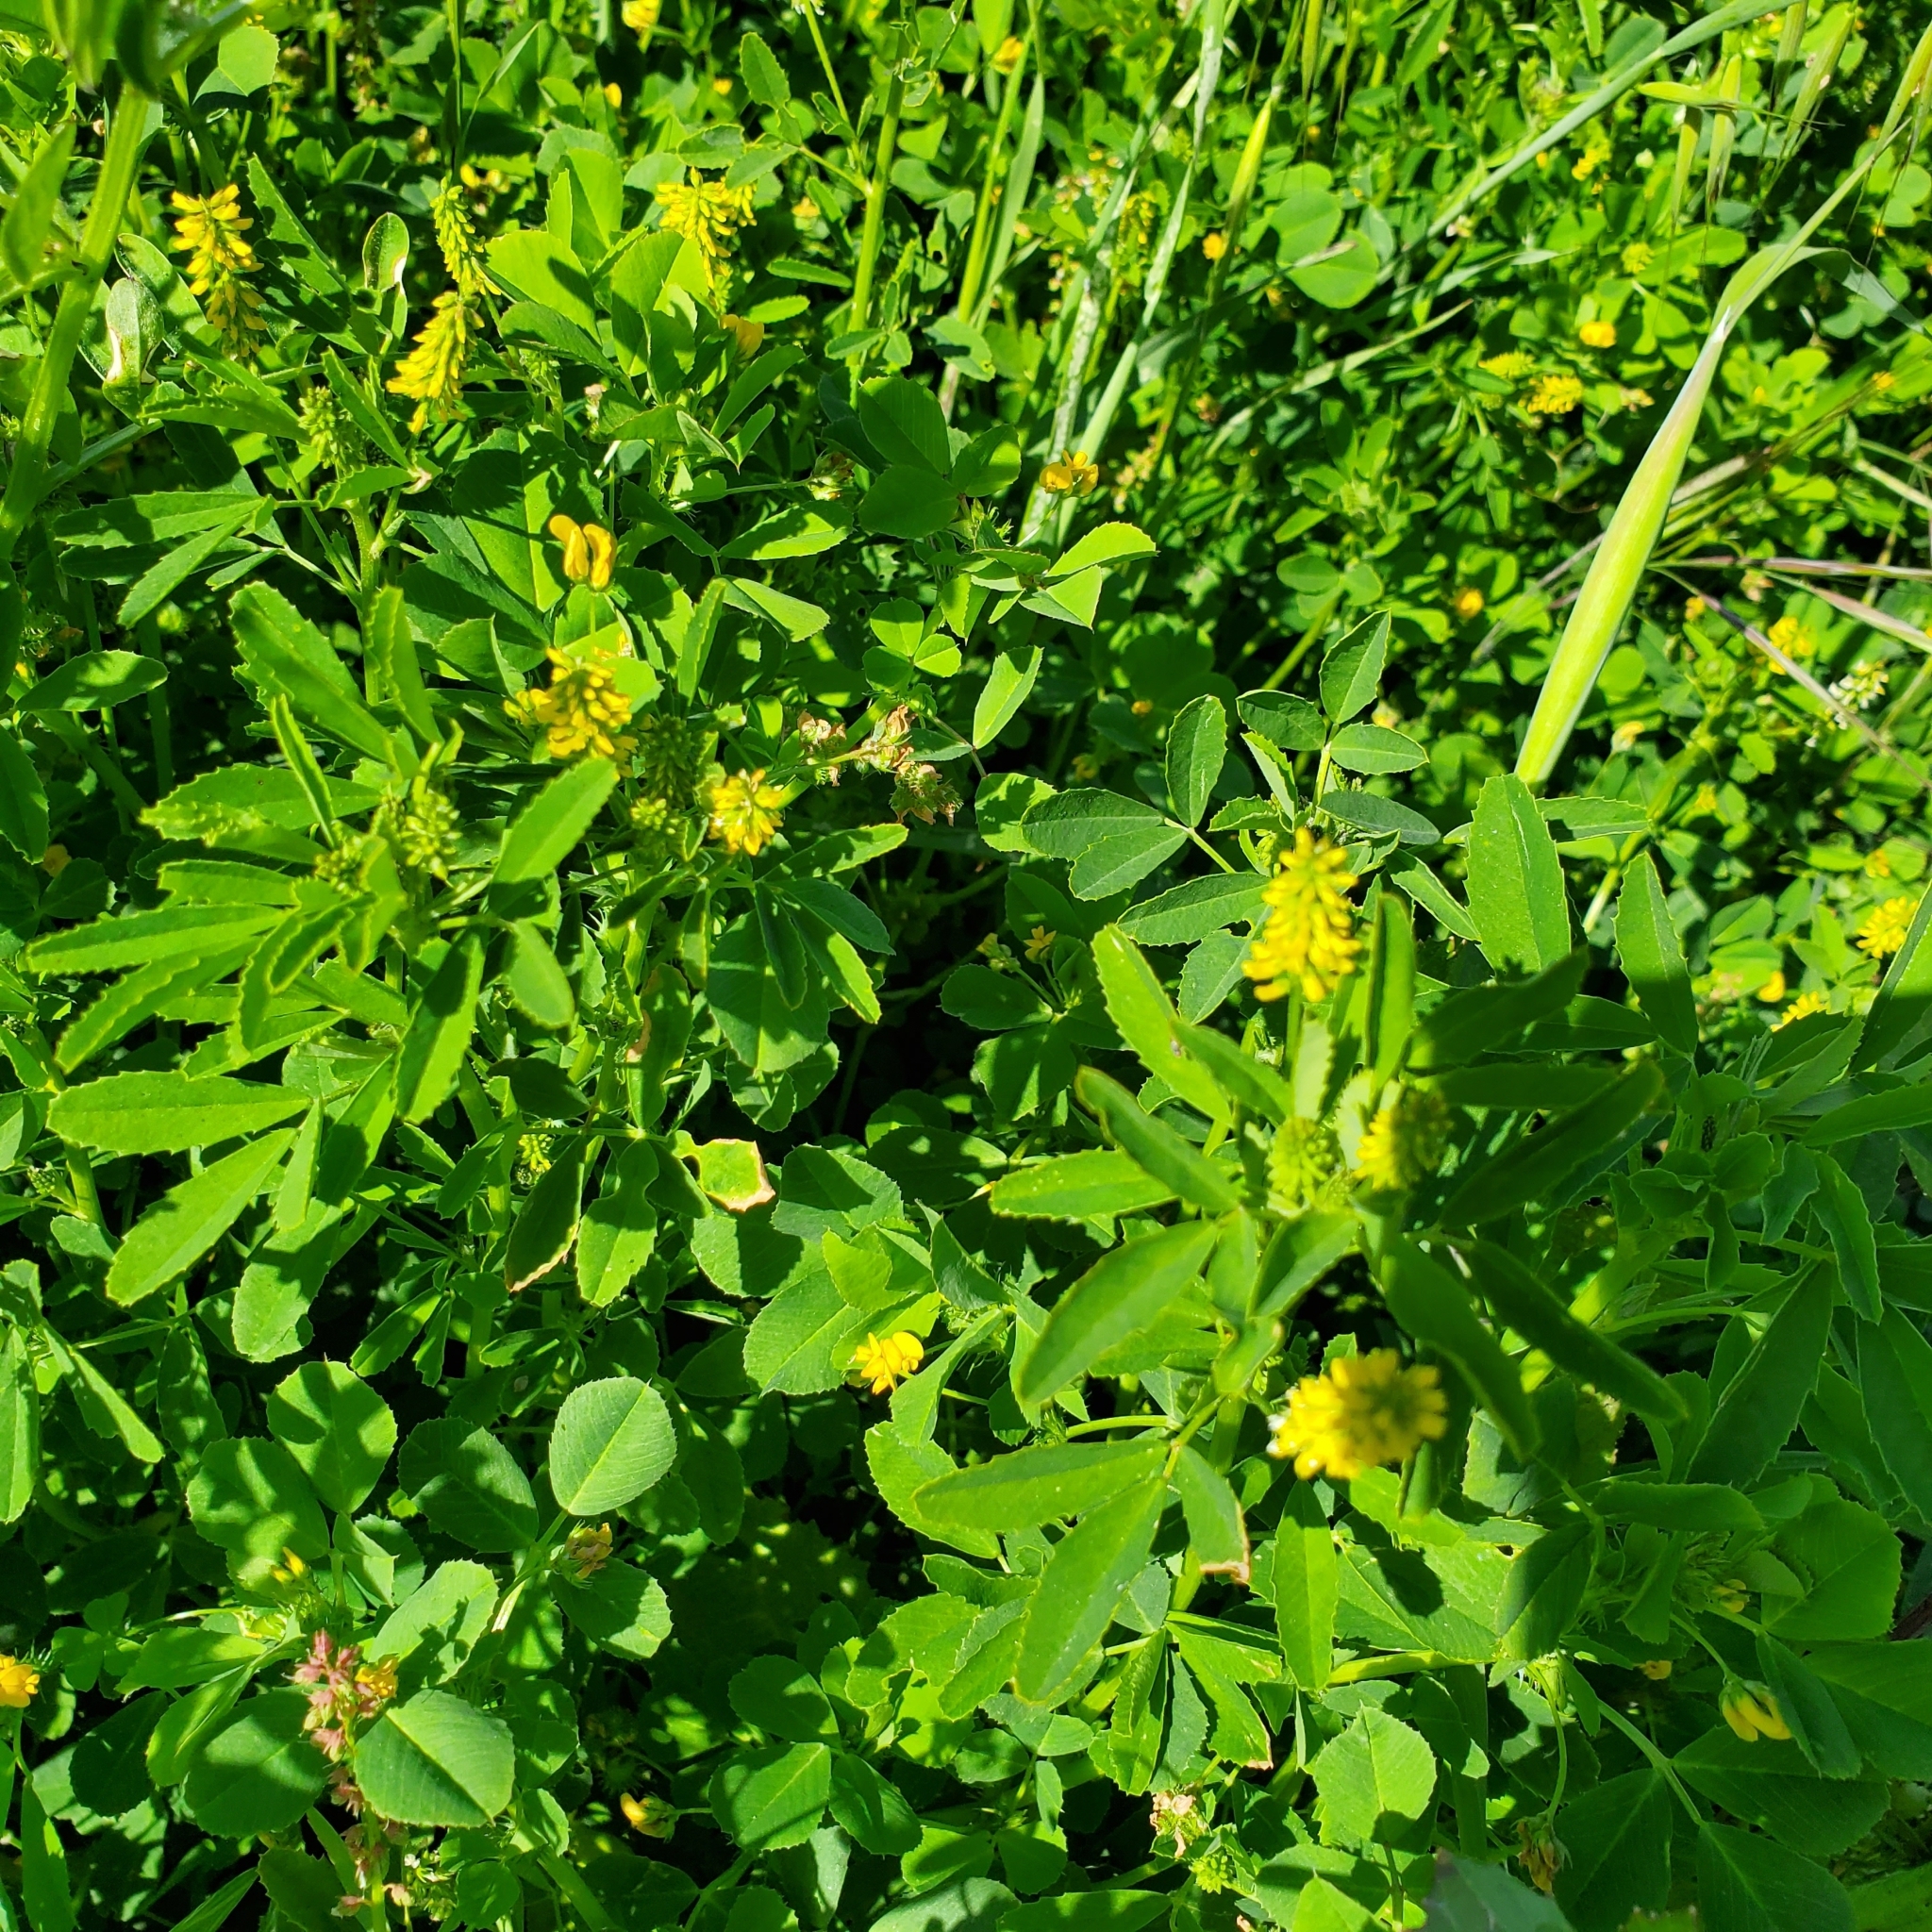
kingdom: Plantae
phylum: Tracheophyta
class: Magnoliopsida
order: Fabales
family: Fabaceae
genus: Melilotus
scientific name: Melilotus indicus
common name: Small melilot
